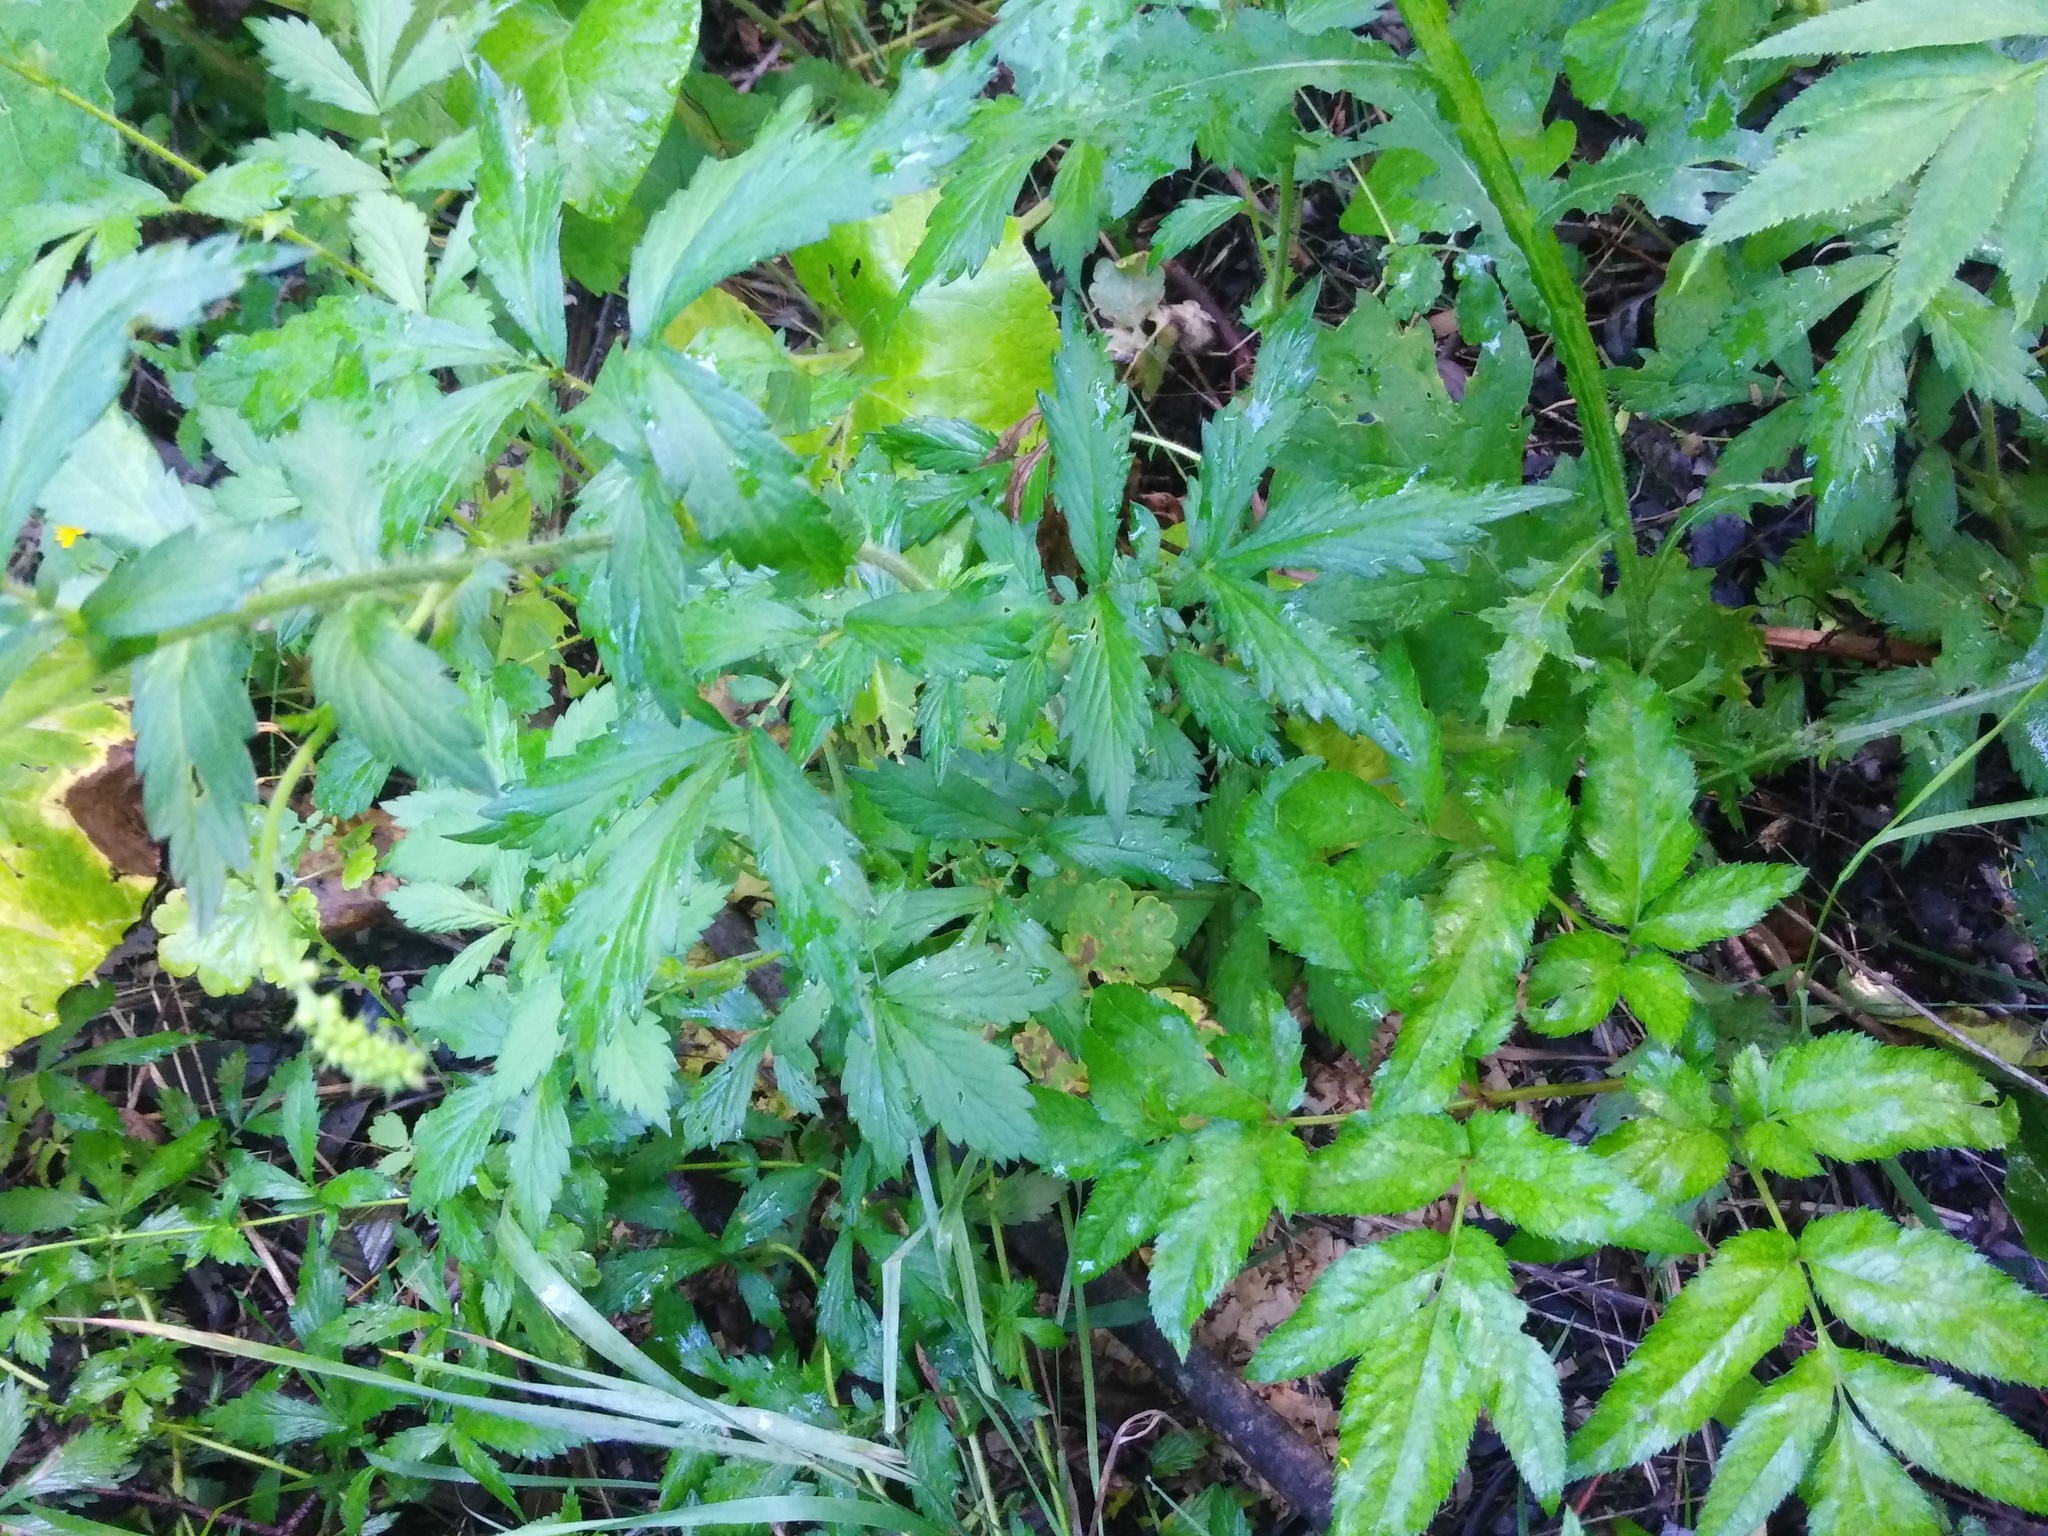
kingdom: Plantae
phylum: Tracheophyta
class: Magnoliopsida
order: Rosales
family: Rosaceae
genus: Agrimonia
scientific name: Agrimonia pilosa
